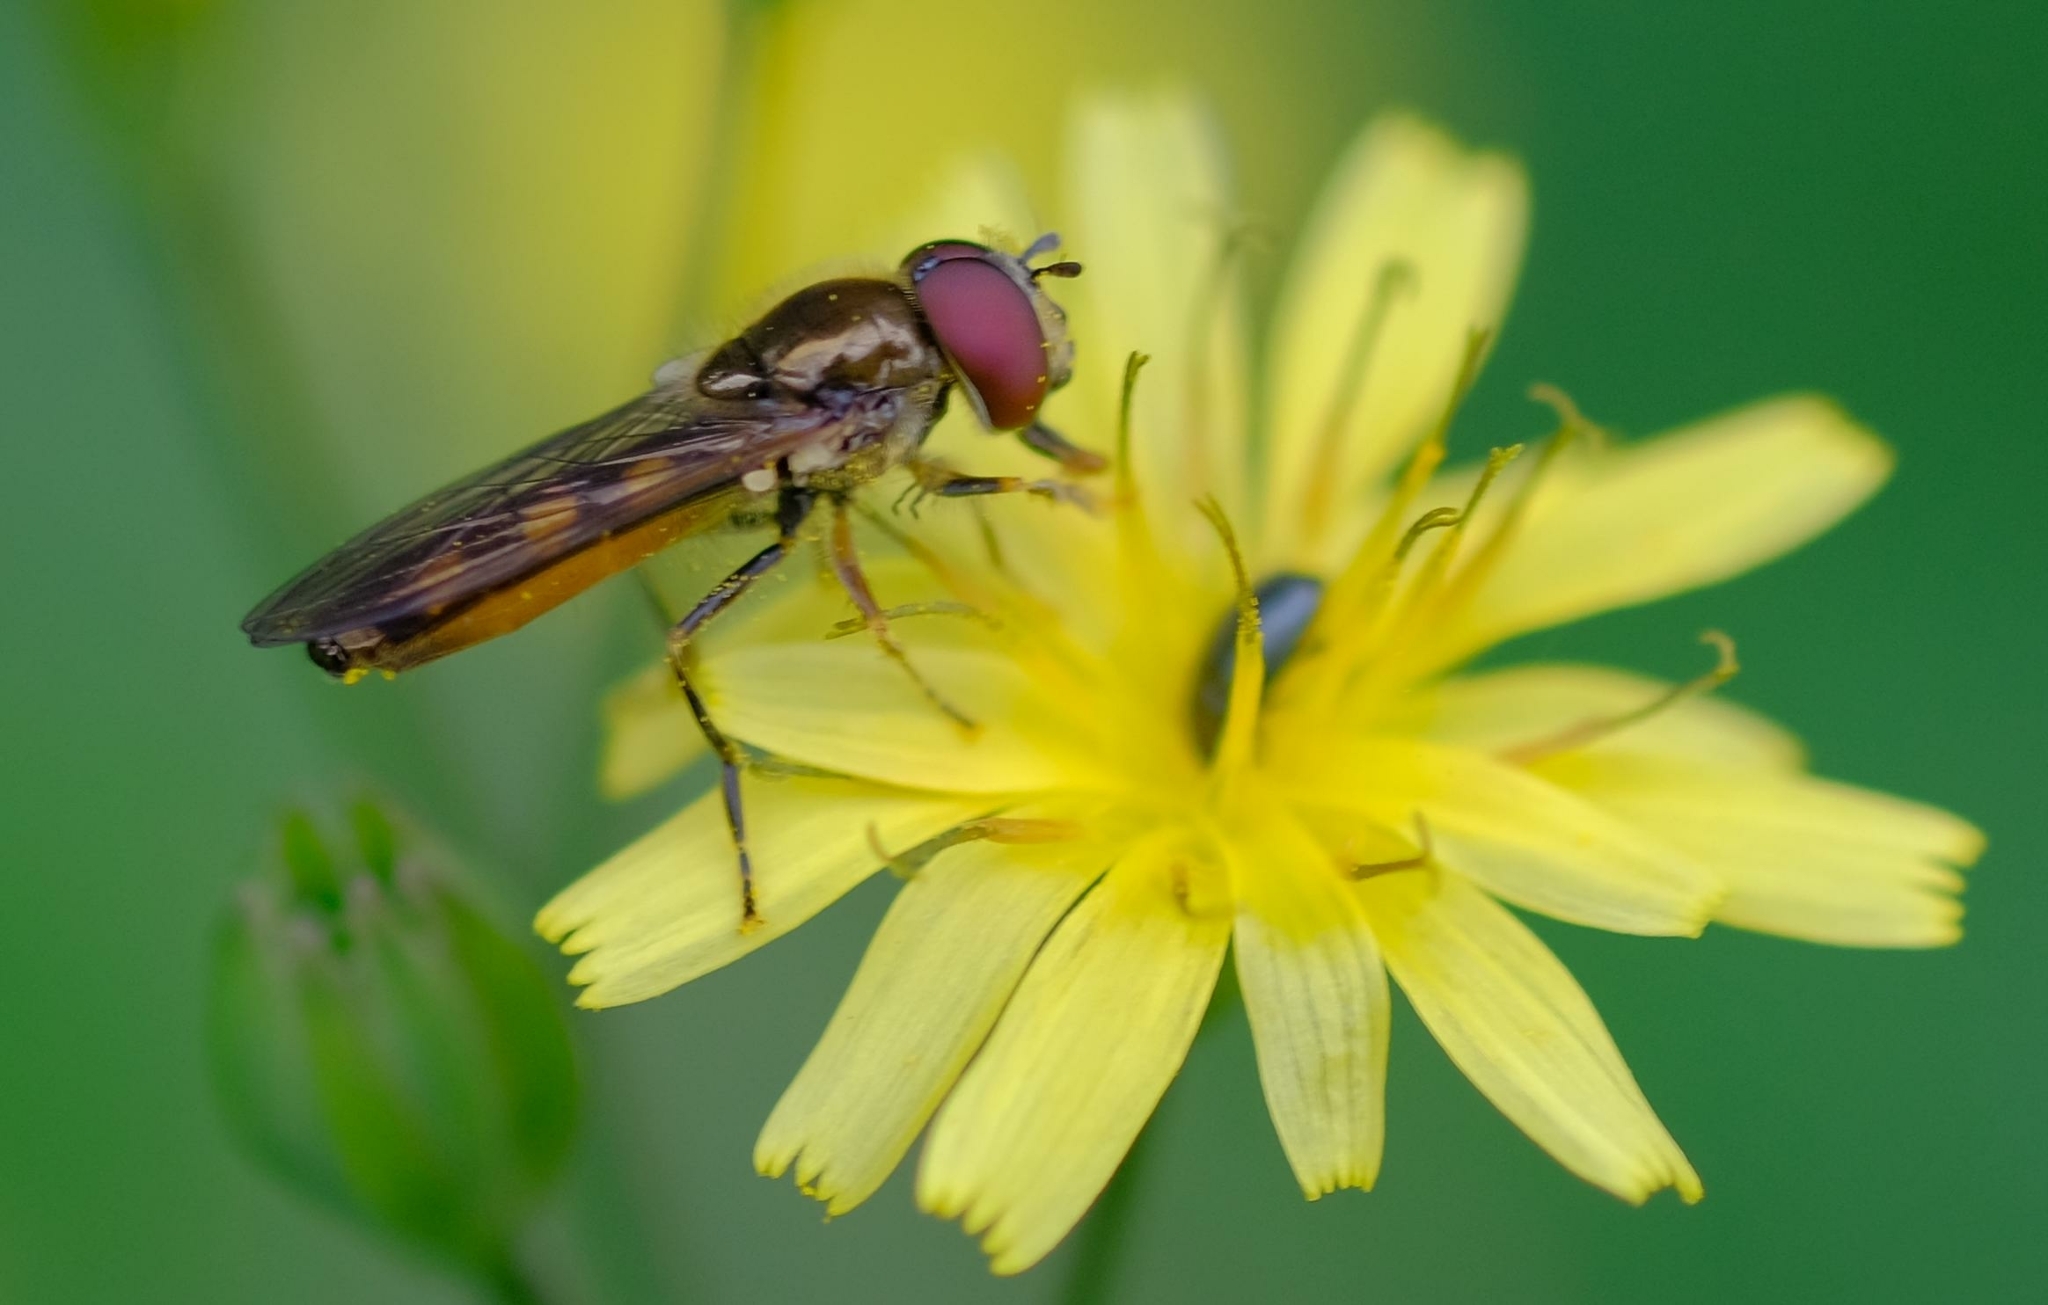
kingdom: Animalia
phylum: Arthropoda
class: Insecta
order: Diptera
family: Syrphidae
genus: Platycheirus
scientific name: Platycheirus
